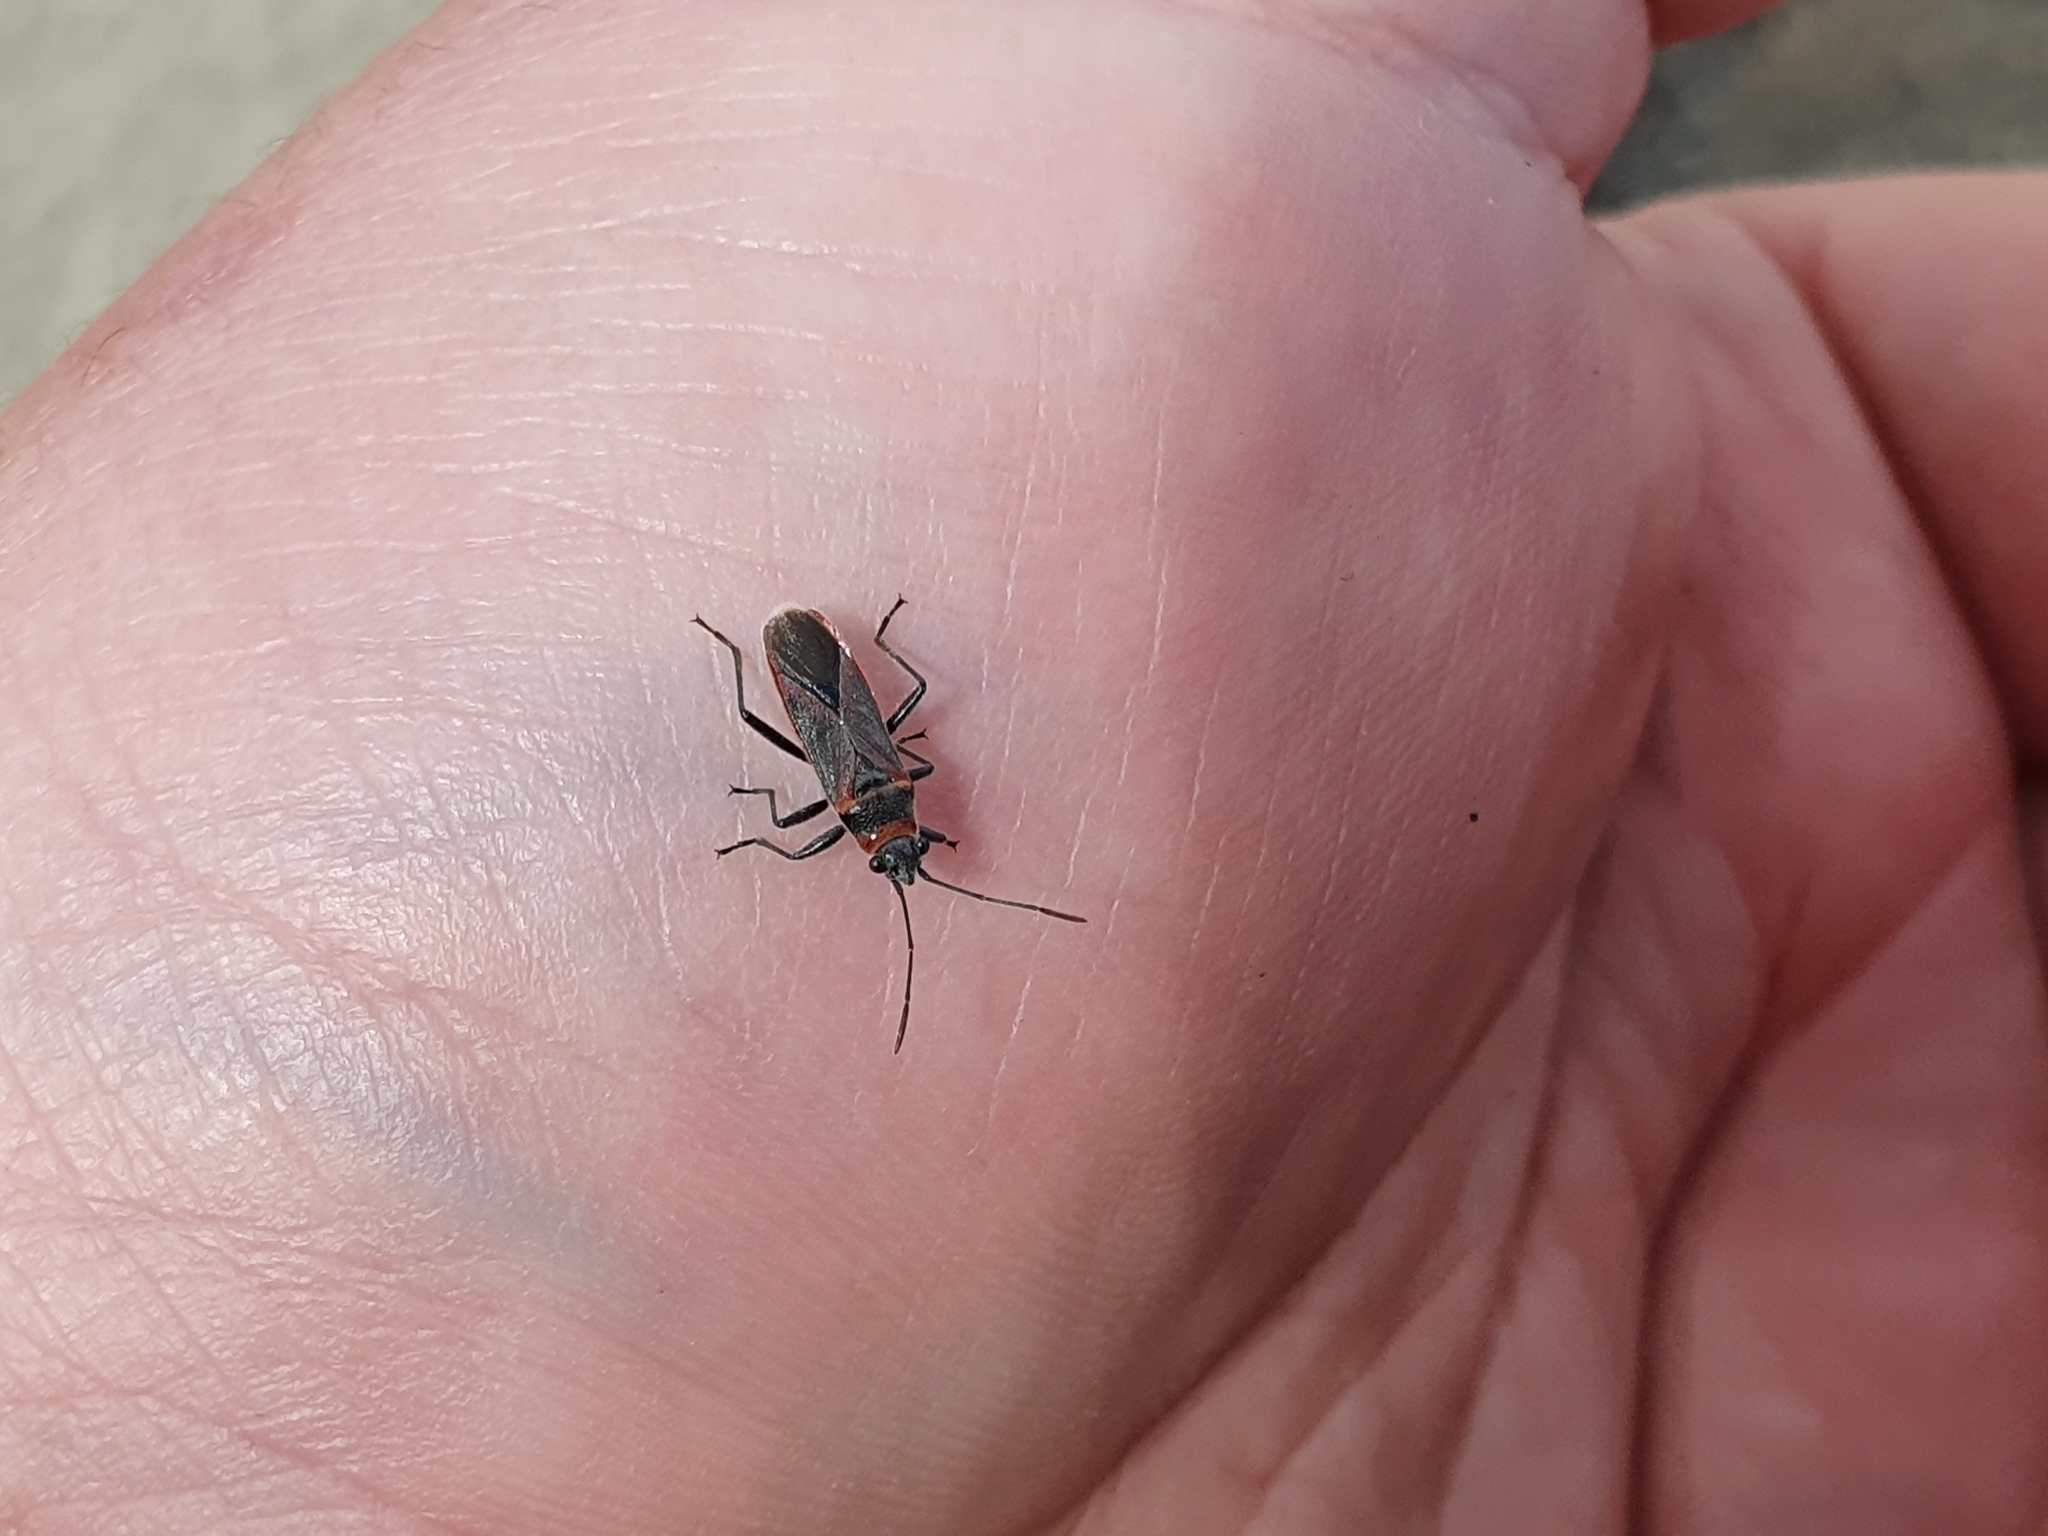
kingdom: Animalia
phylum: Arthropoda
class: Insecta
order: Hemiptera
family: Lygaeidae
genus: Arocatus
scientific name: Arocatus rusticus
